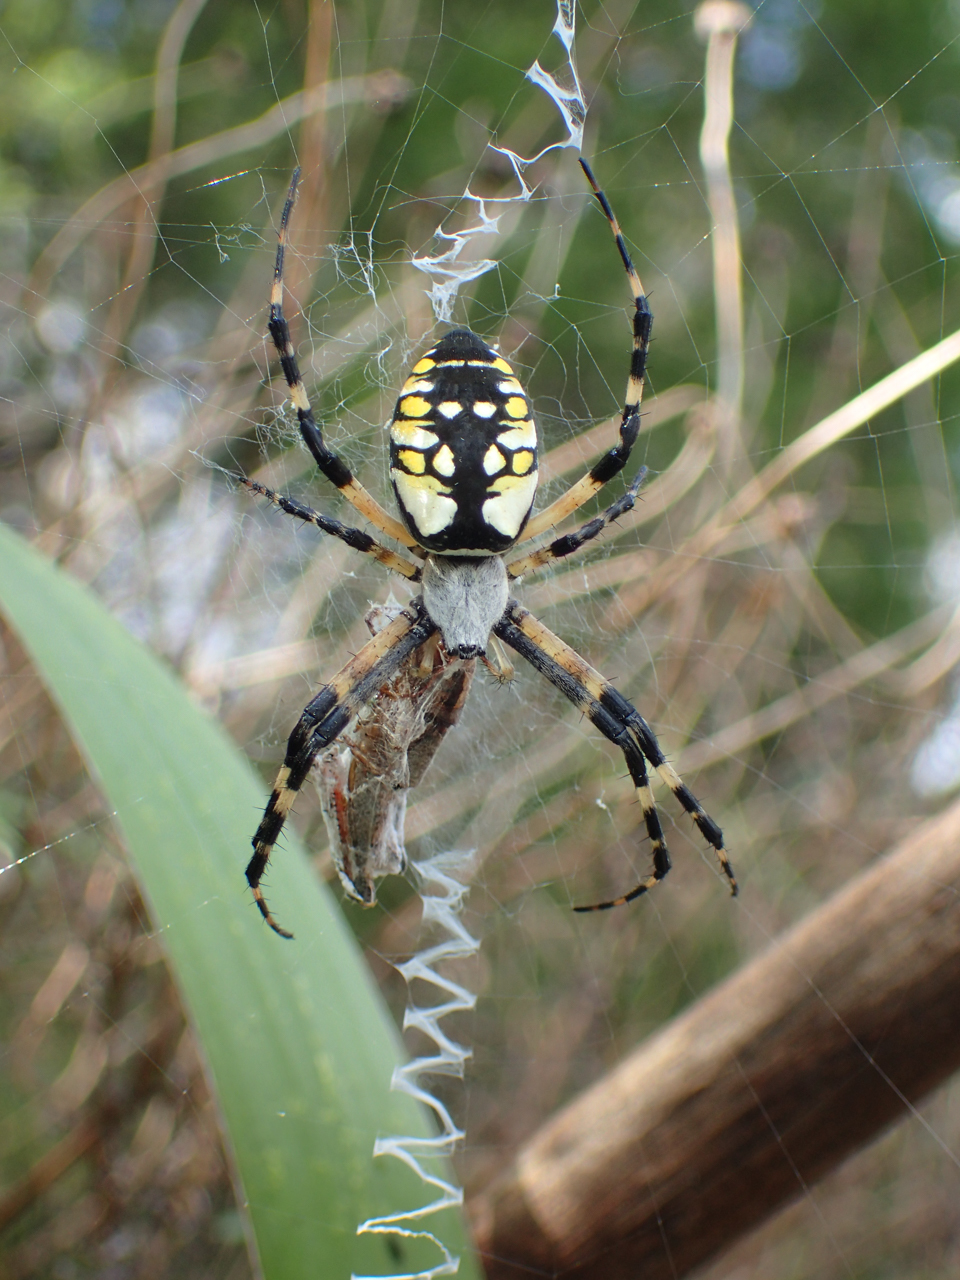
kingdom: Animalia
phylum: Arthropoda
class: Arachnida
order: Araneae
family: Araneidae
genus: Argiope
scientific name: Argiope aurantia
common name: Orb weavers
